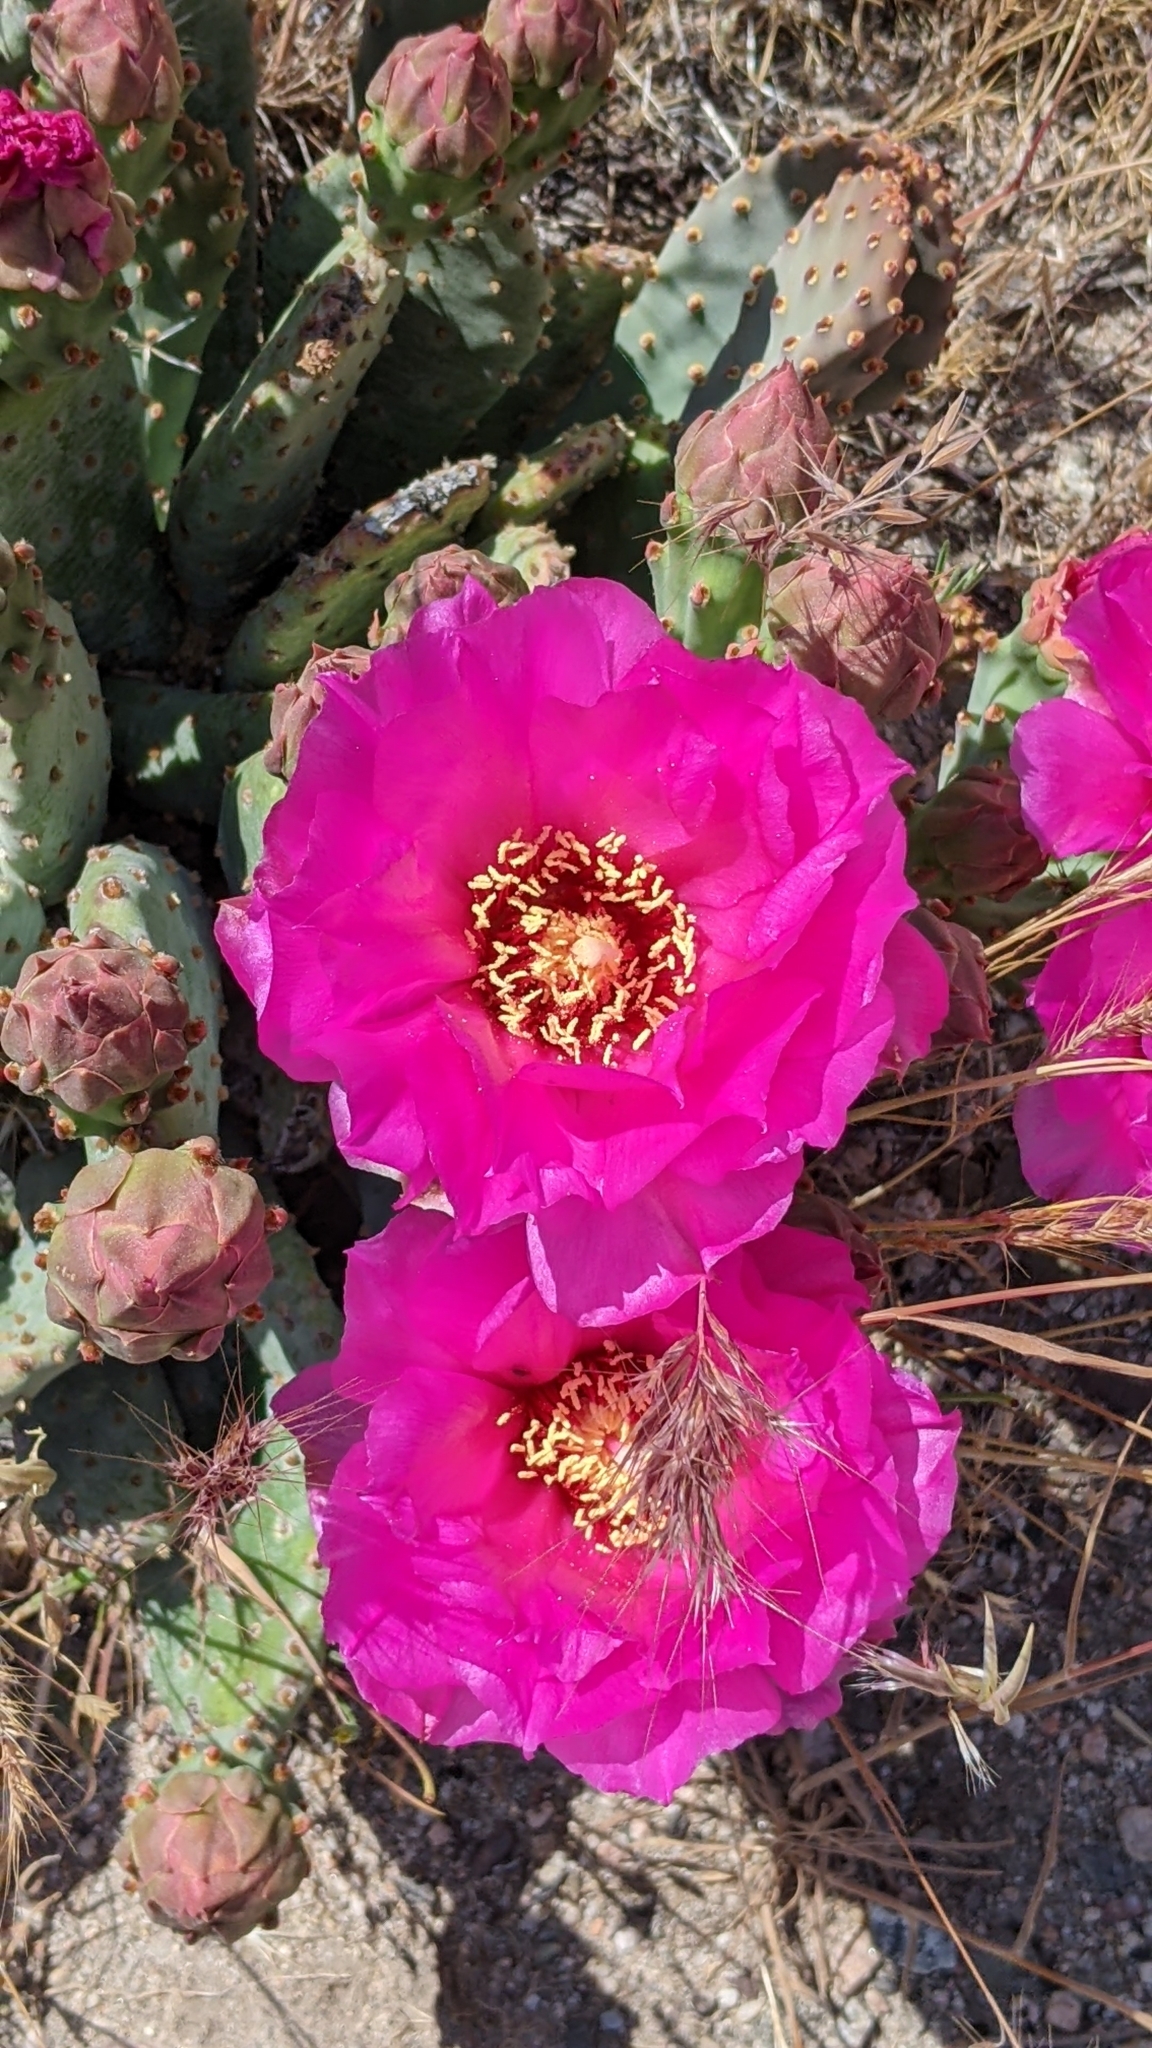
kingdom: Plantae
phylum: Tracheophyta
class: Magnoliopsida
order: Caryophyllales
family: Cactaceae
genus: Opuntia
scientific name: Opuntia basilaris
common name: Beavertail prickly-pear
